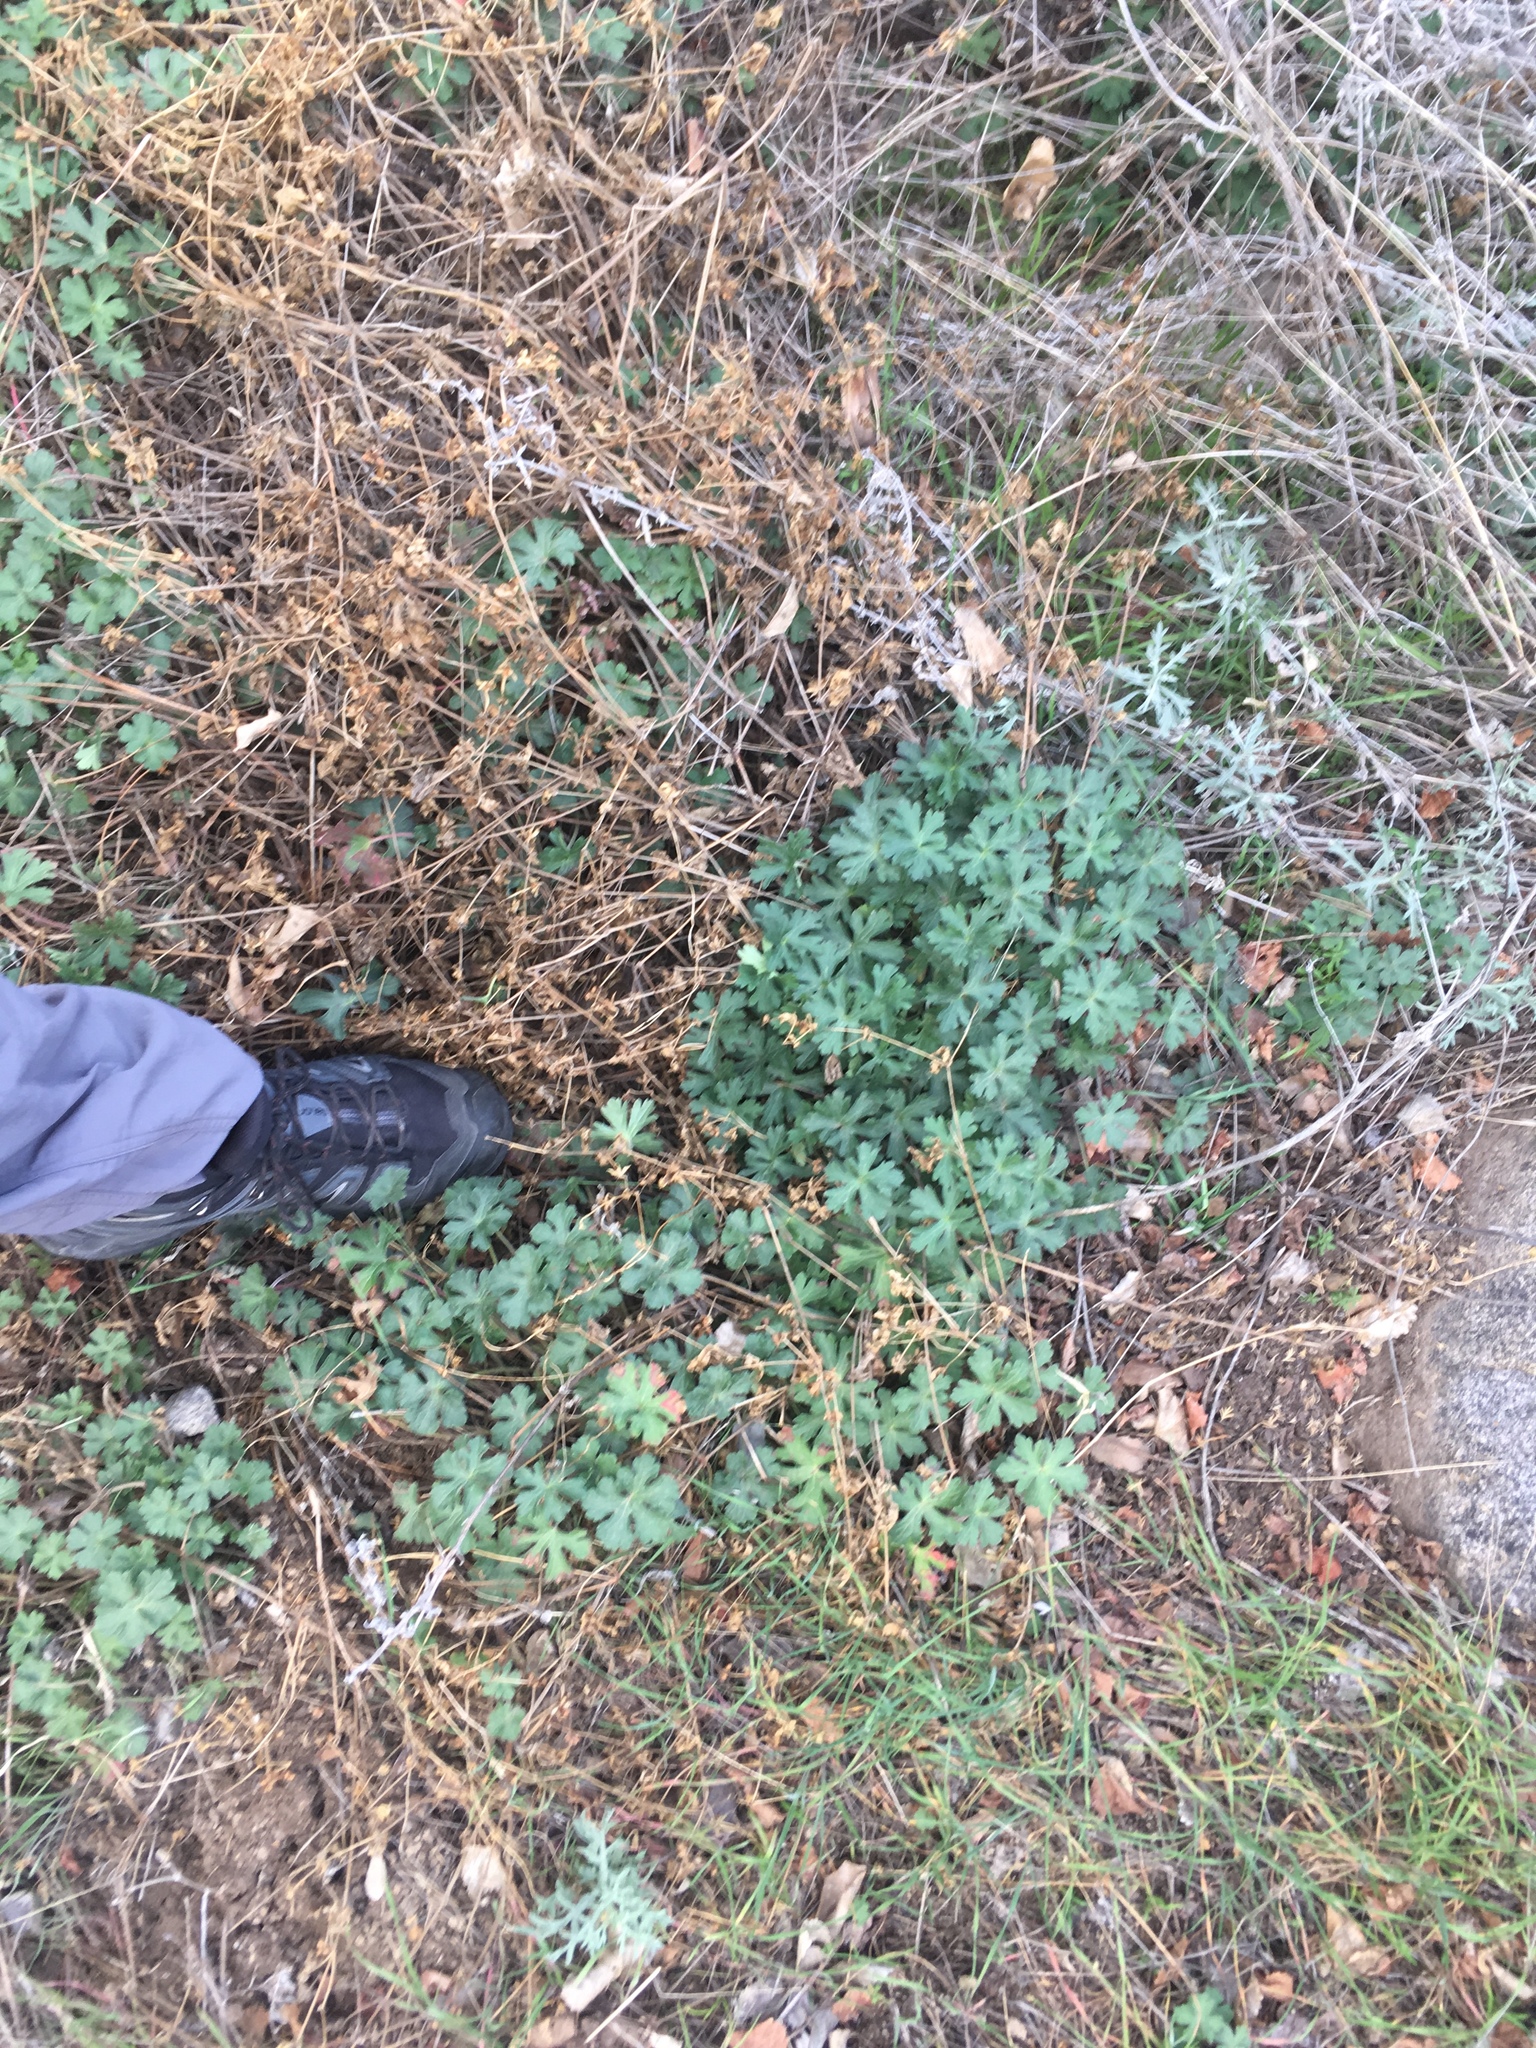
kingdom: Plantae
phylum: Tracheophyta
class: Magnoliopsida
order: Geraniales
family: Geraniaceae
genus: Geranium
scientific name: Geranium caespitosum
